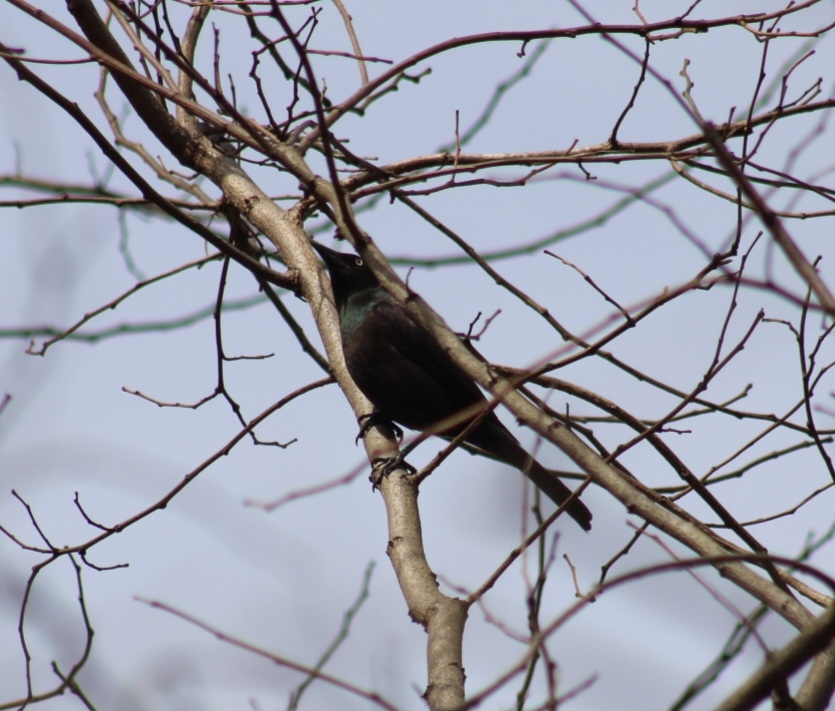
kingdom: Animalia
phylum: Chordata
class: Aves
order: Passeriformes
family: Icteridae
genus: Quiscalus
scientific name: Quiscalus quiscula
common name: Common grackle
